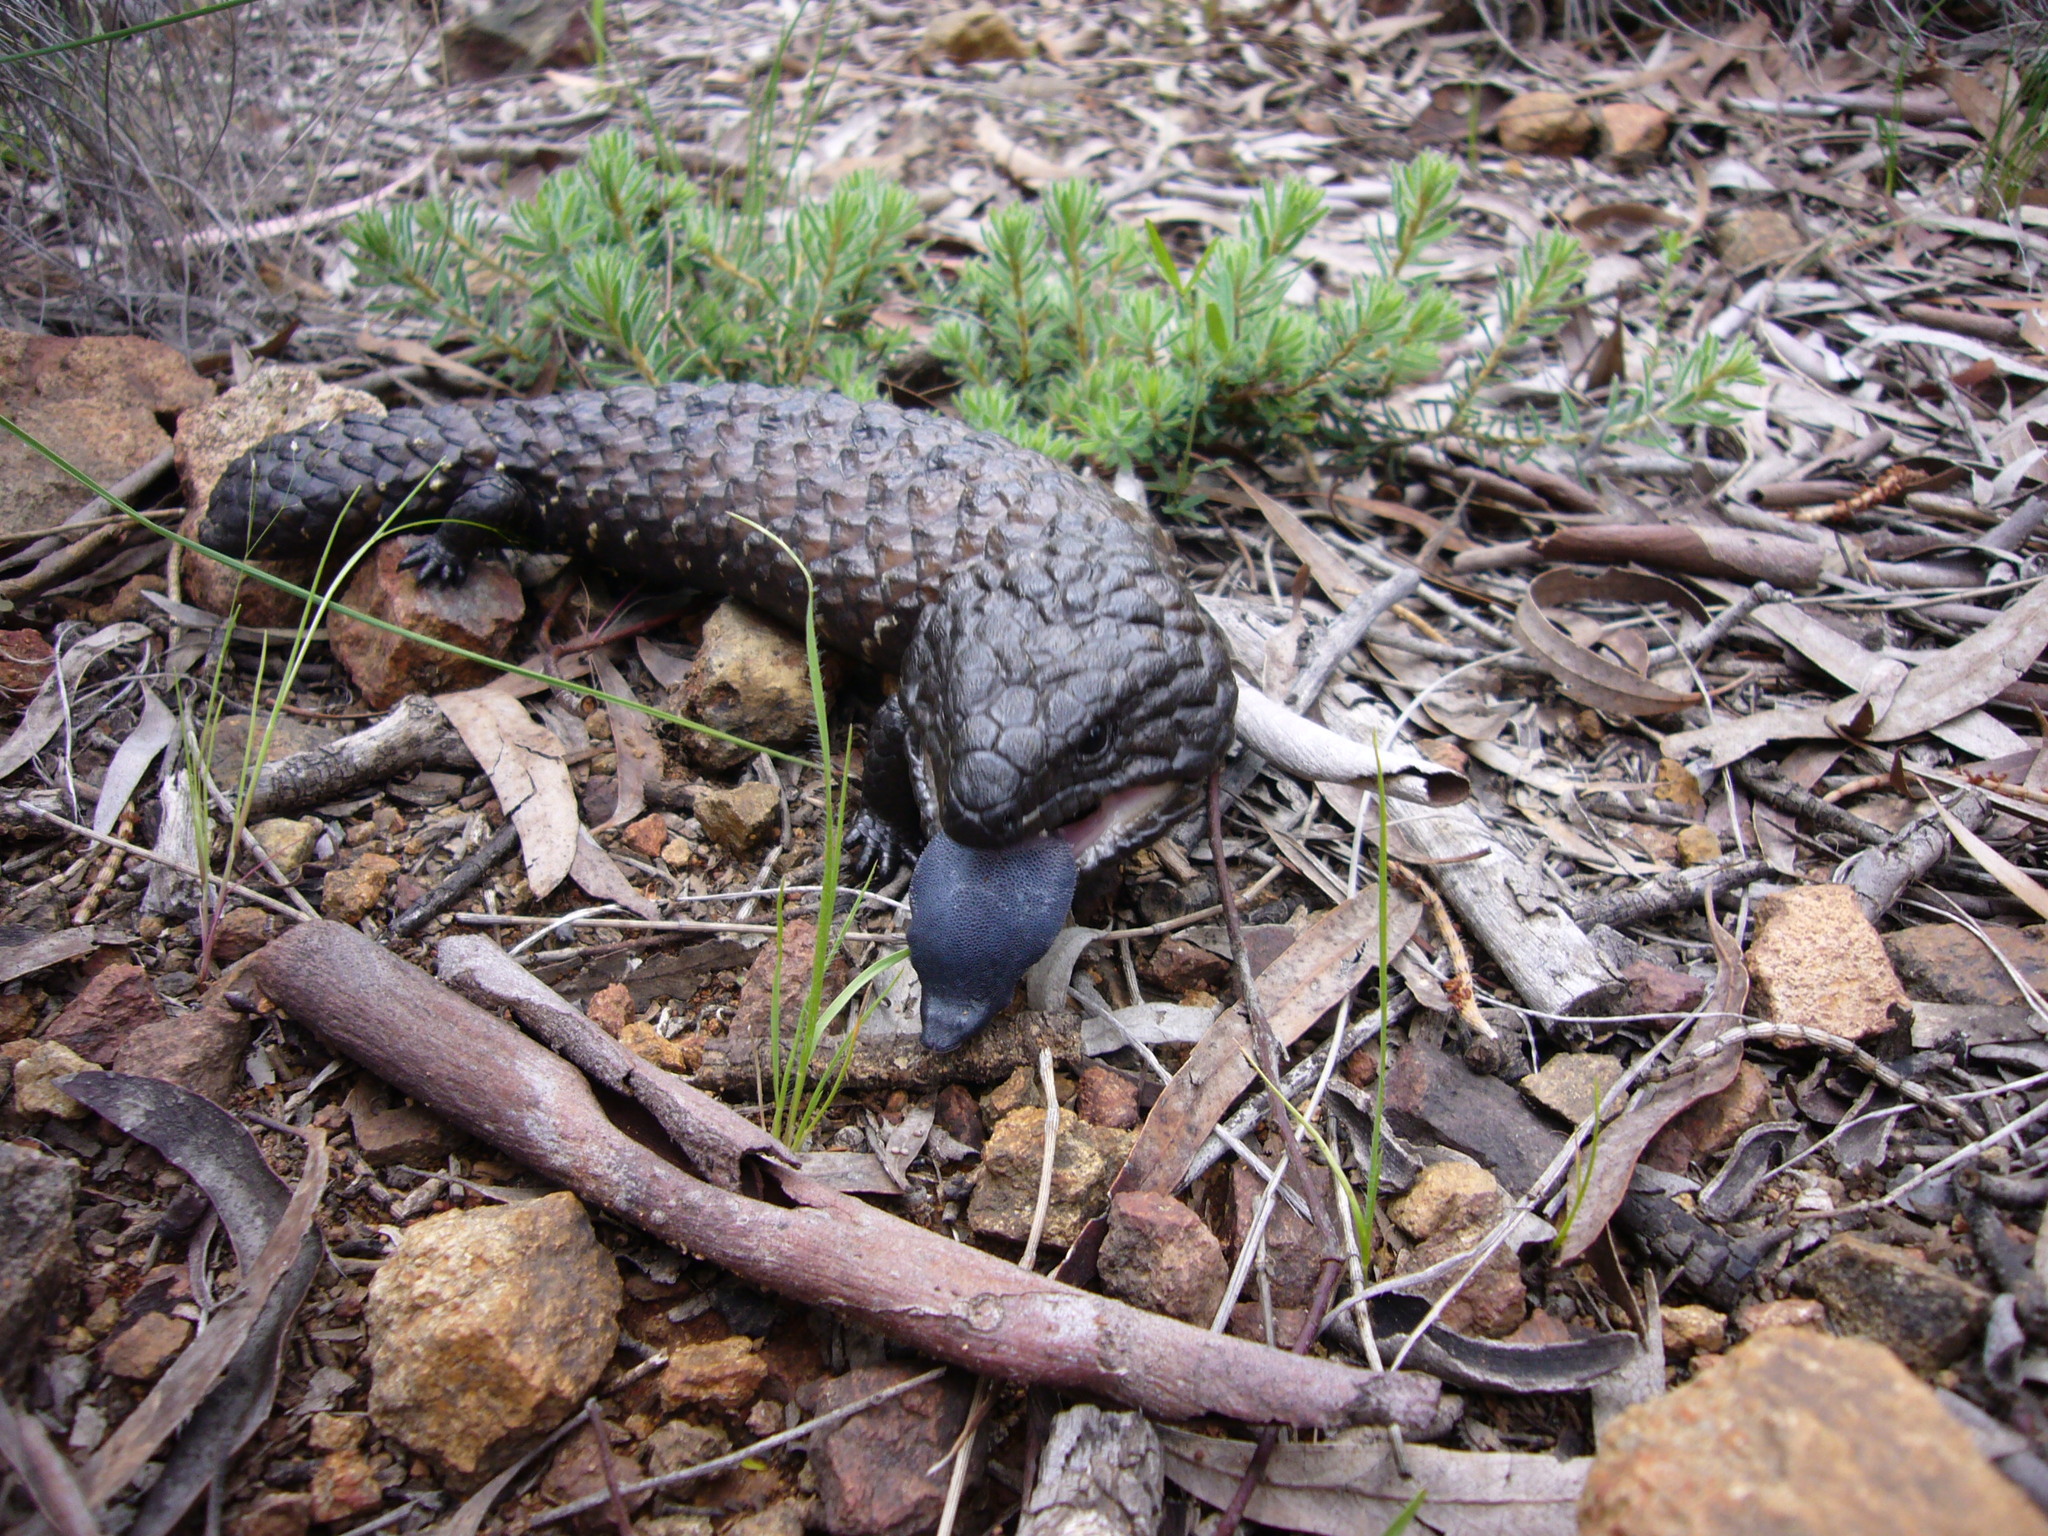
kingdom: Animalia
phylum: Chordata
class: Squamata
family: Scincidae
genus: Tiliqua
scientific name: Tiliqua rugosa
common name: Pinecone lizard
